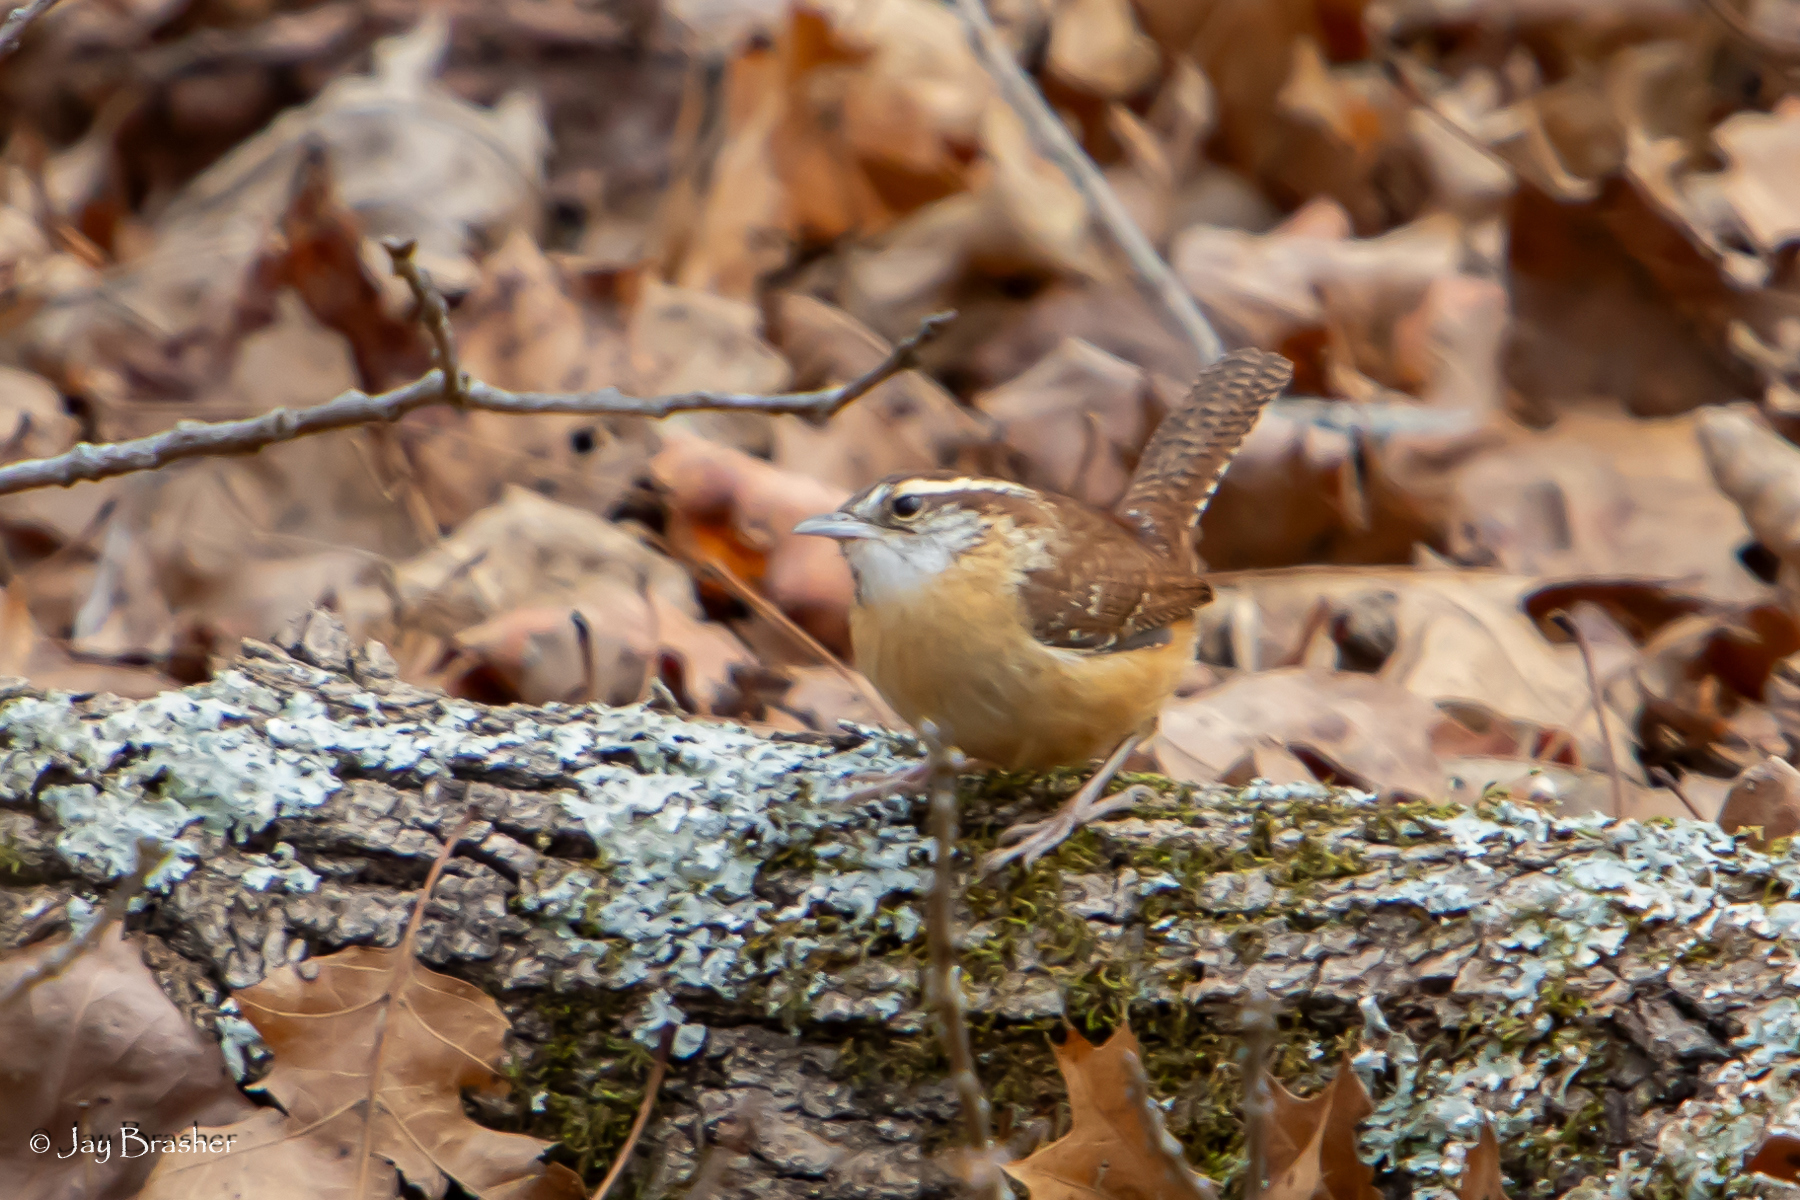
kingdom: Animalia
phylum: Chordata
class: Aves
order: Passeriformes
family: Troglodytidae
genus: Thryothorus
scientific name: Thryothorus ludovicianus
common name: Carolina wren
